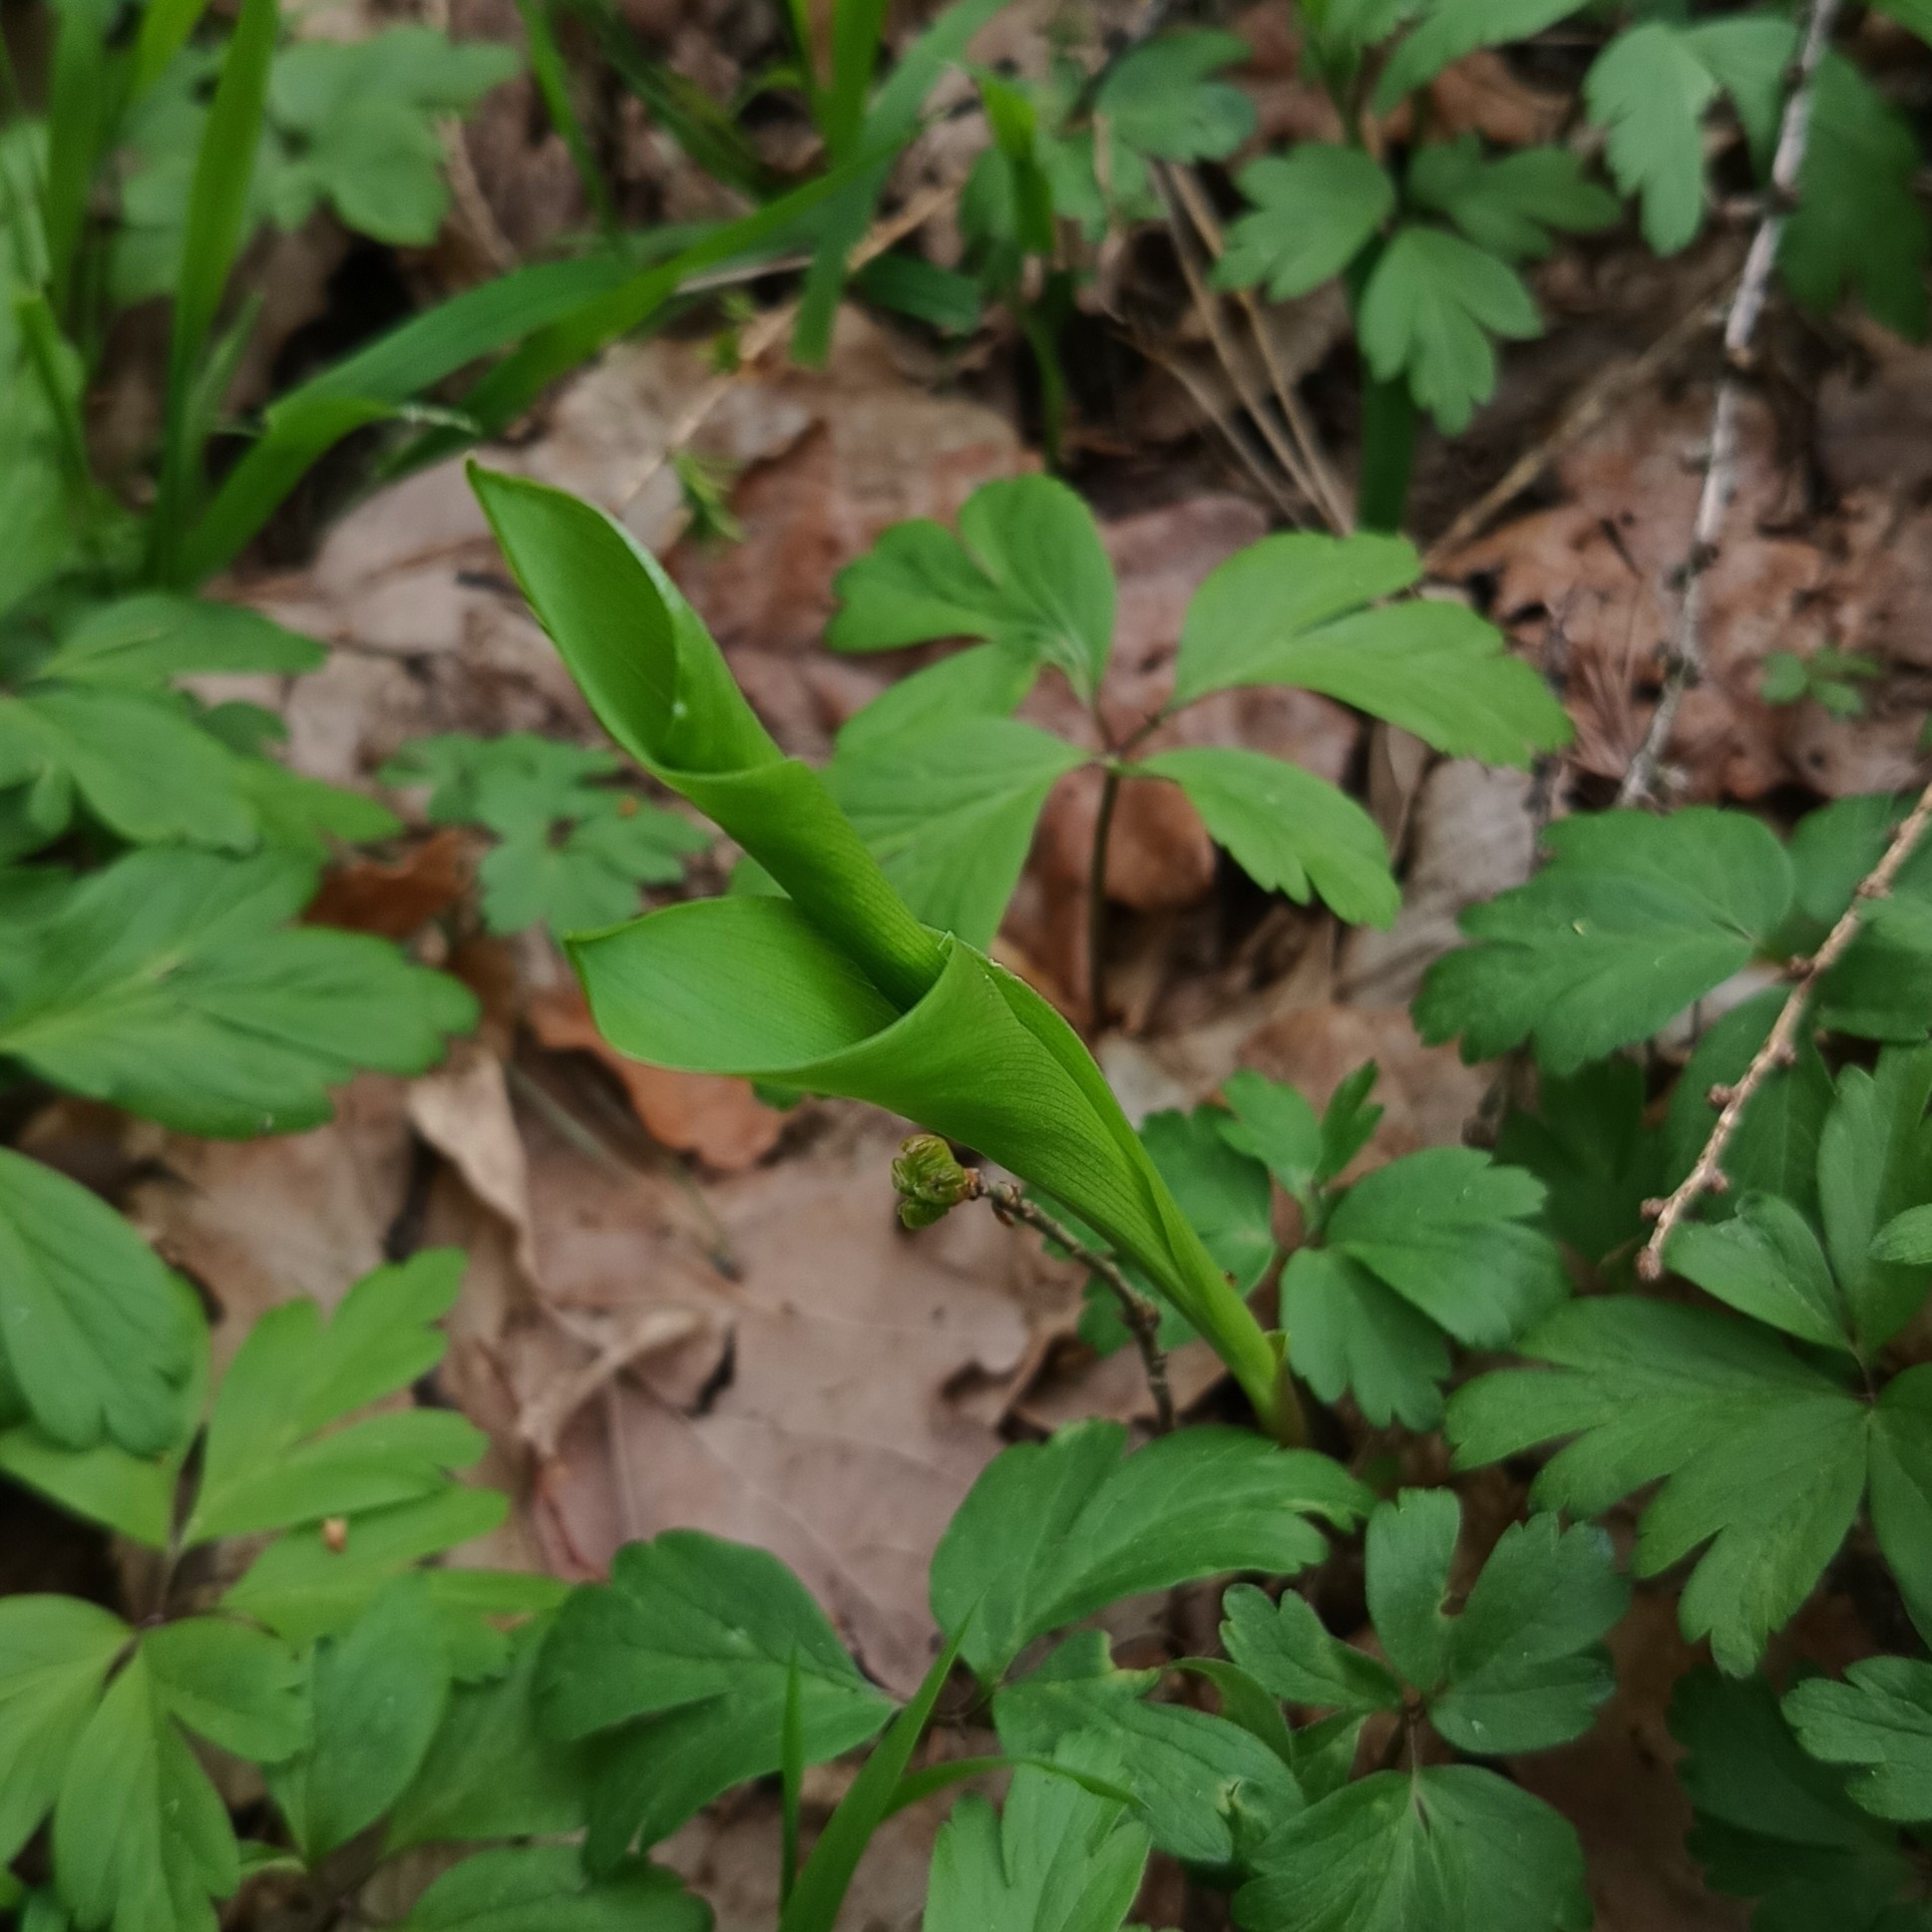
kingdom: Plantae
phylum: Tracheophyta
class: Liliopsida
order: Asparagales
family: Asparagaceae
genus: Convallaria
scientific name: Convallaria majalis
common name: Lily-of-the-valley
